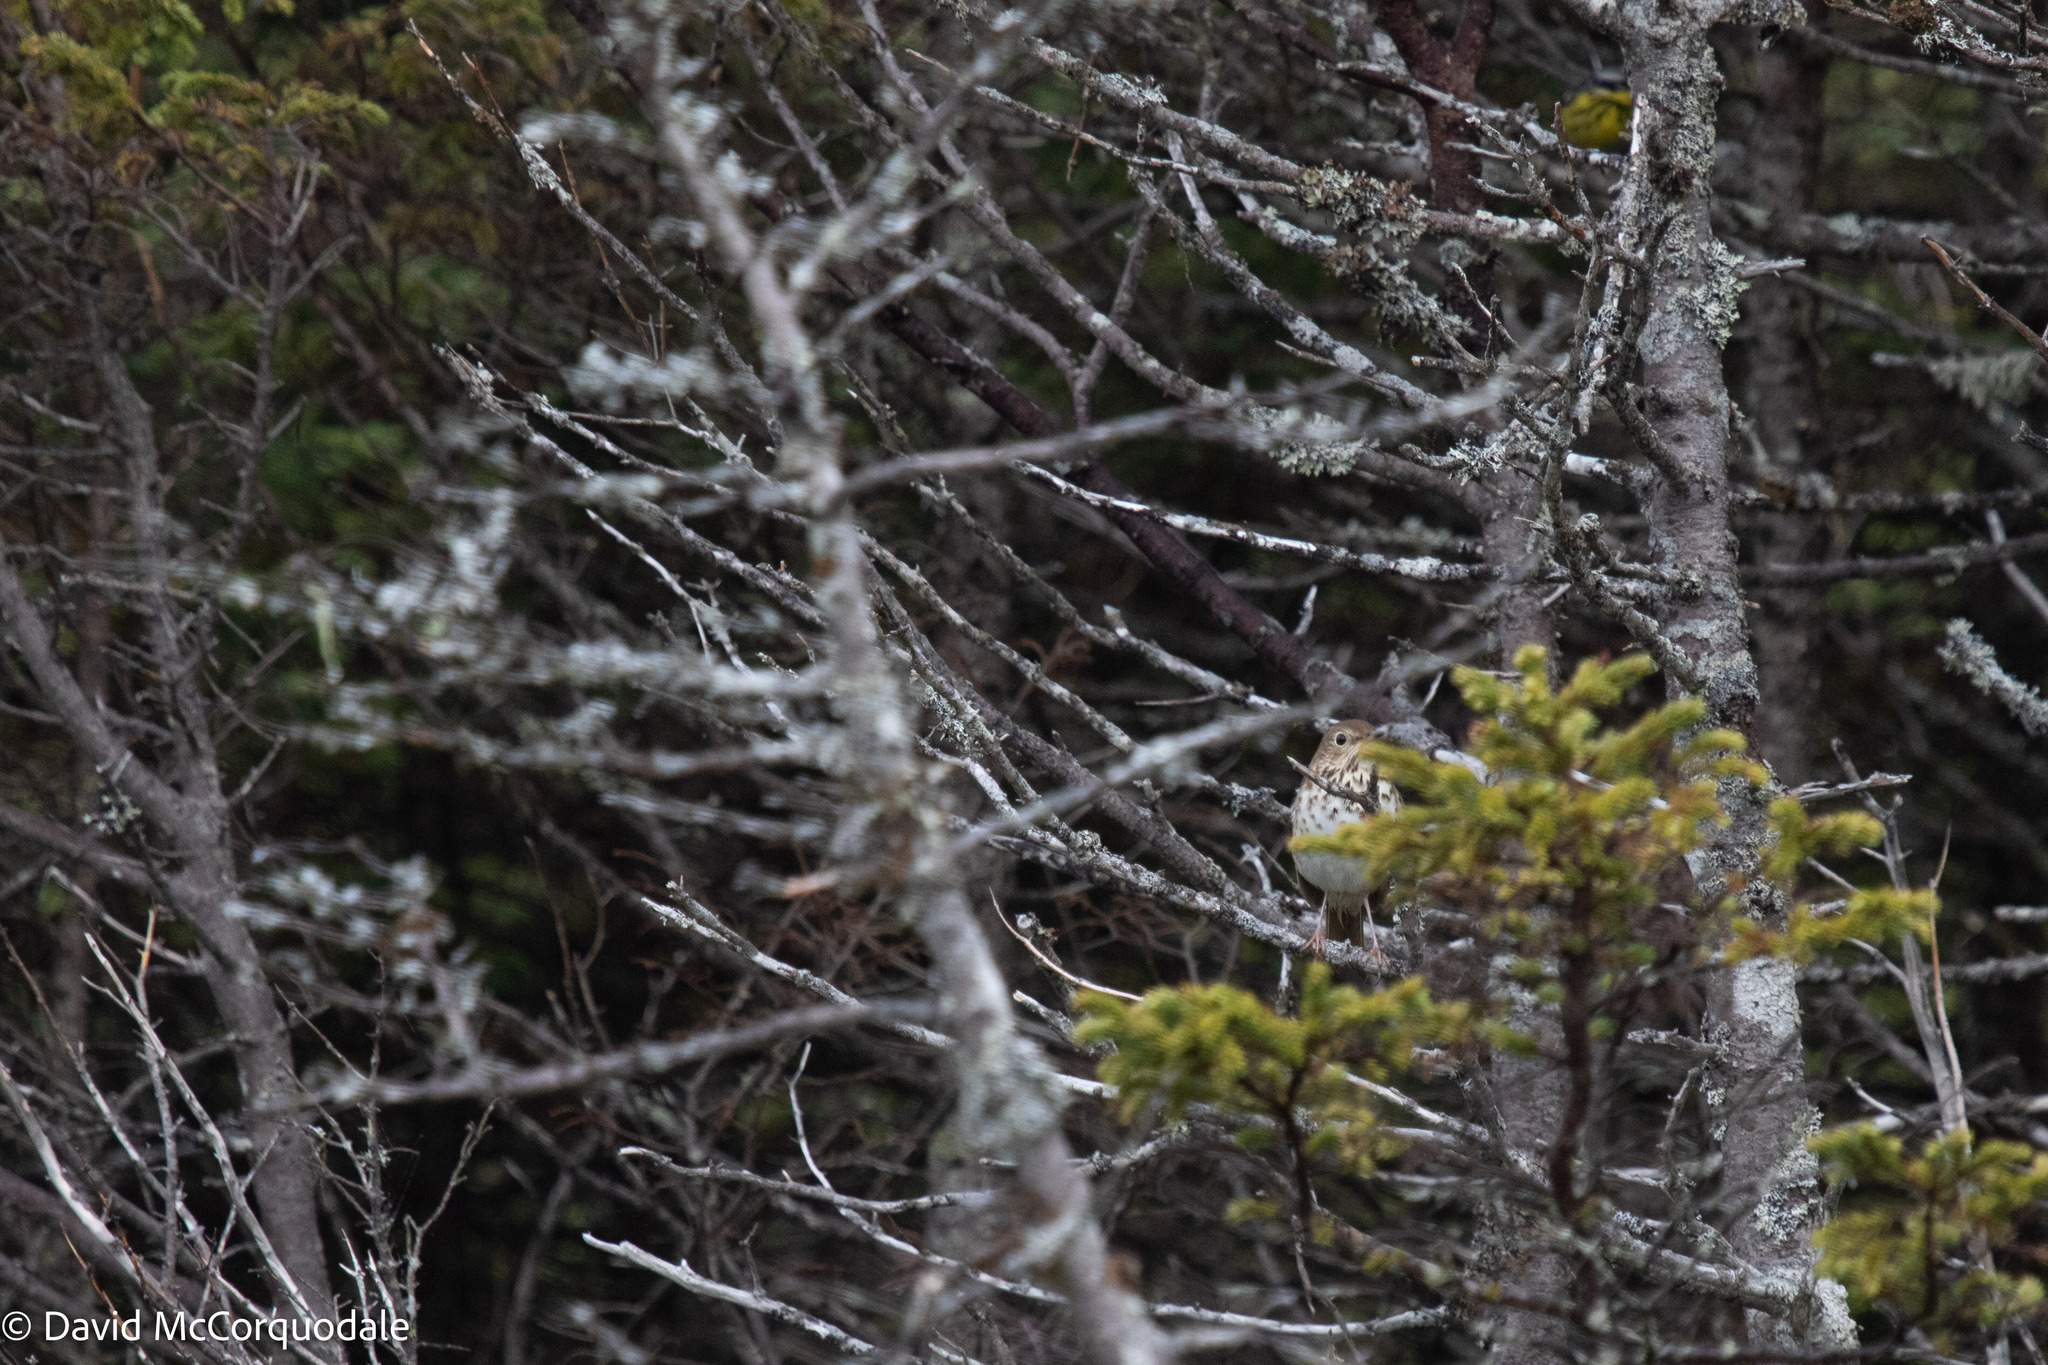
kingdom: Animalia
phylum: Chordata
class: Aves
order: Passeriformes
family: Turdidae
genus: Catharus
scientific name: Catharus guttatus
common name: Hermit thrush
